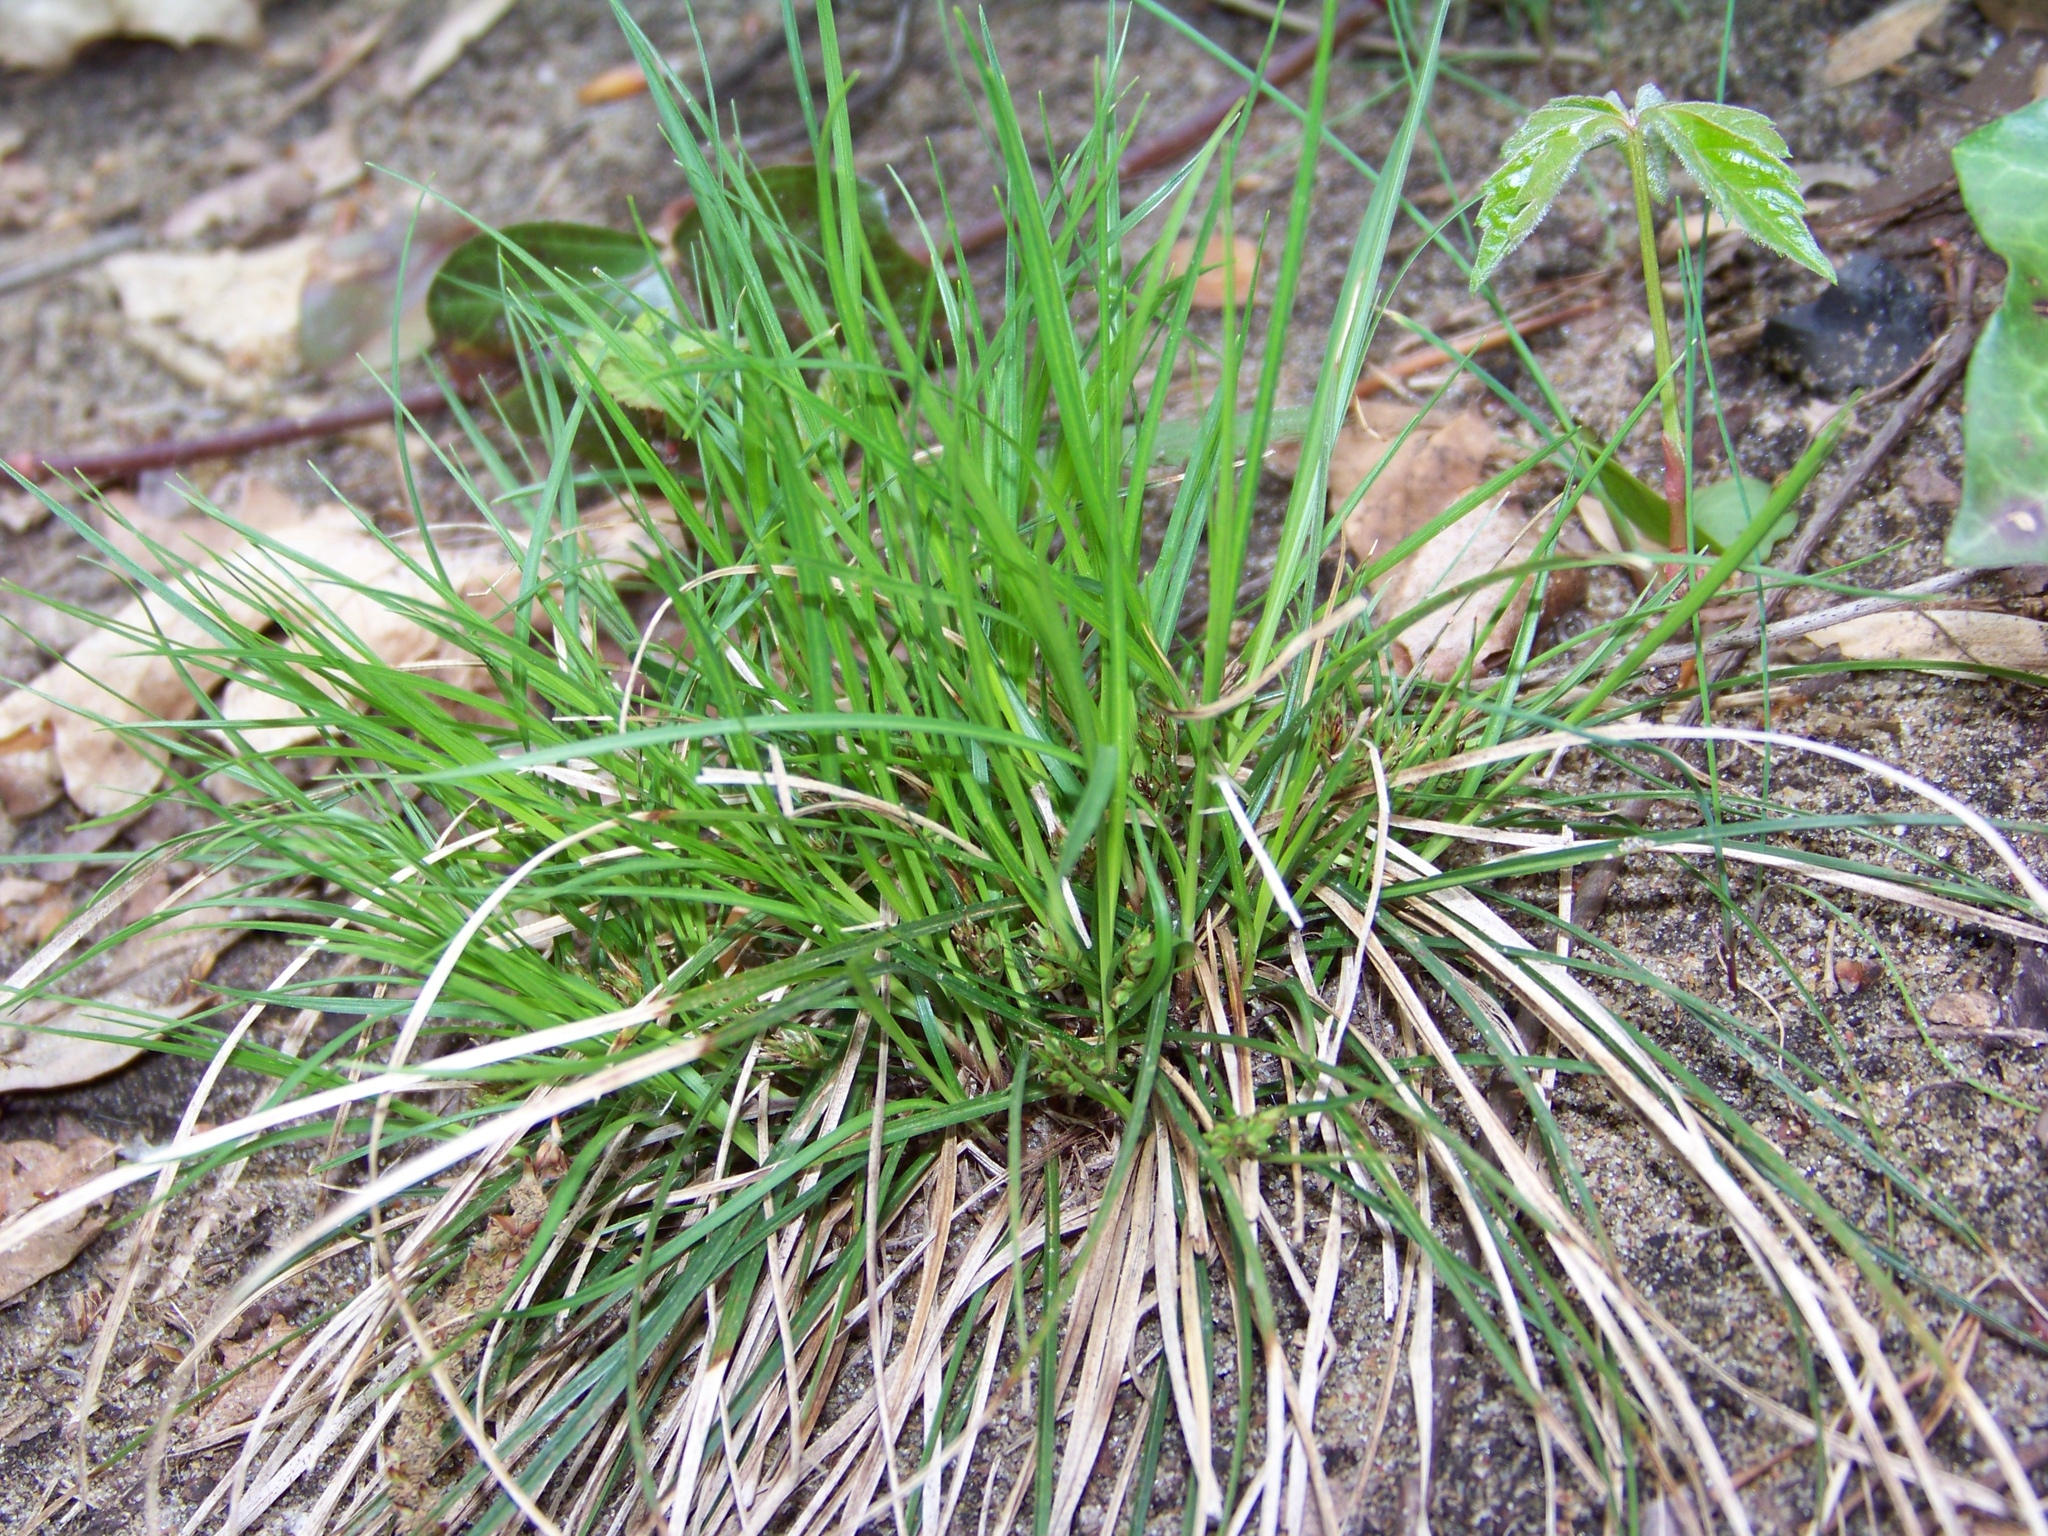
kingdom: Plantae
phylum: Tracheophyta
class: Liliopsida
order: Poales
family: Cyperaceae
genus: Carex
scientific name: Carex tonsa
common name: Bald sedge
